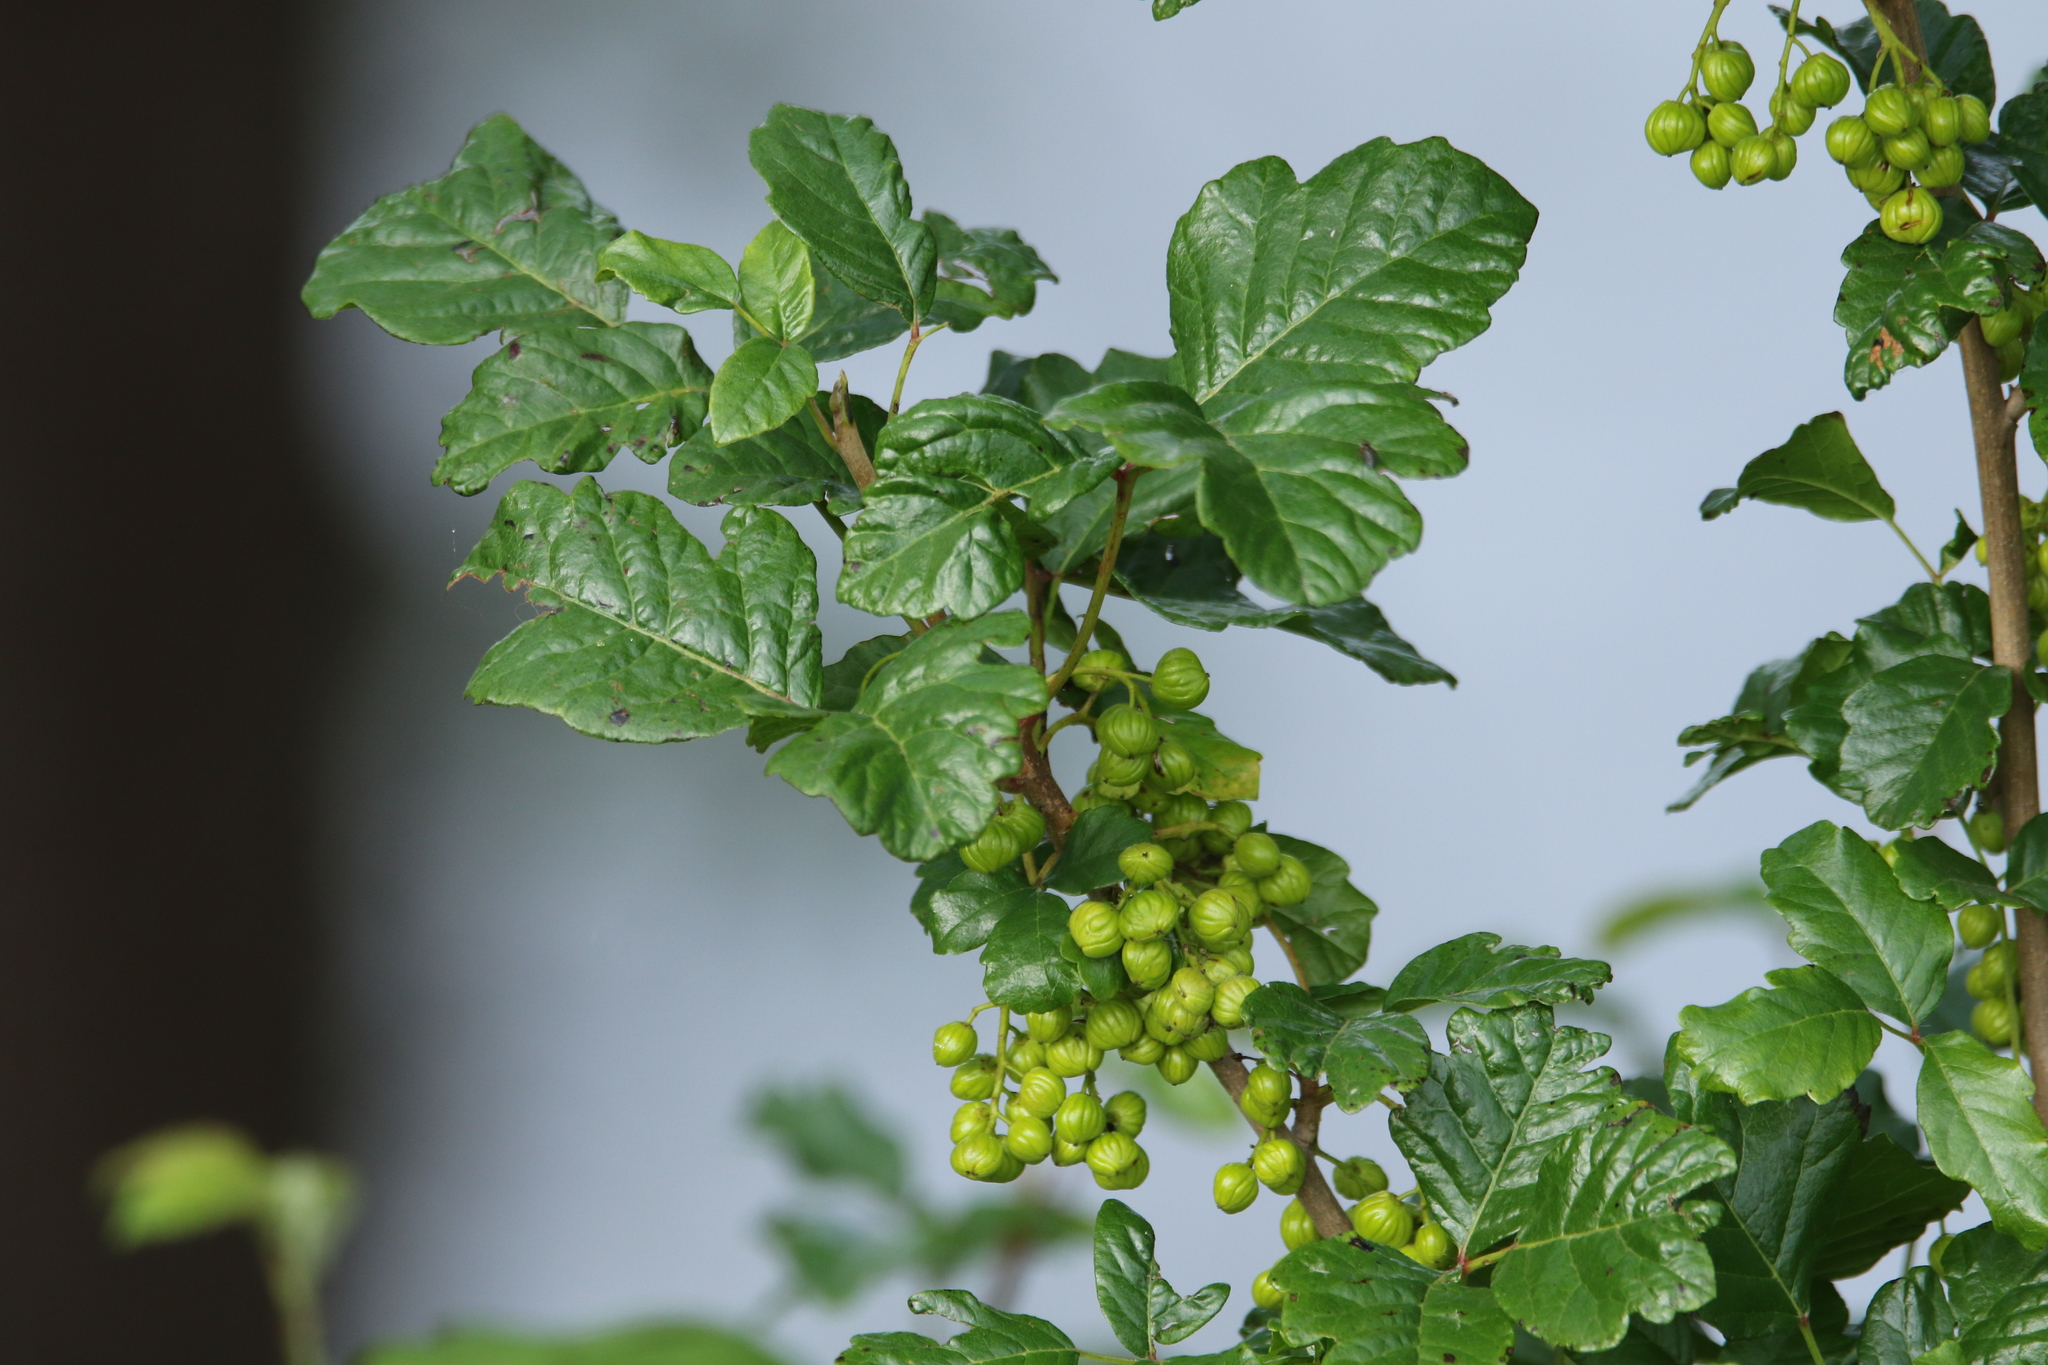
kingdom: Plantae
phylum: Tracheophyta
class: Magnoliopsida
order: Sapindales
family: Anacardiaceae
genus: Toxicodendron
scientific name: Toxicodendron diversilobum
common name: Pacific poison-oak
